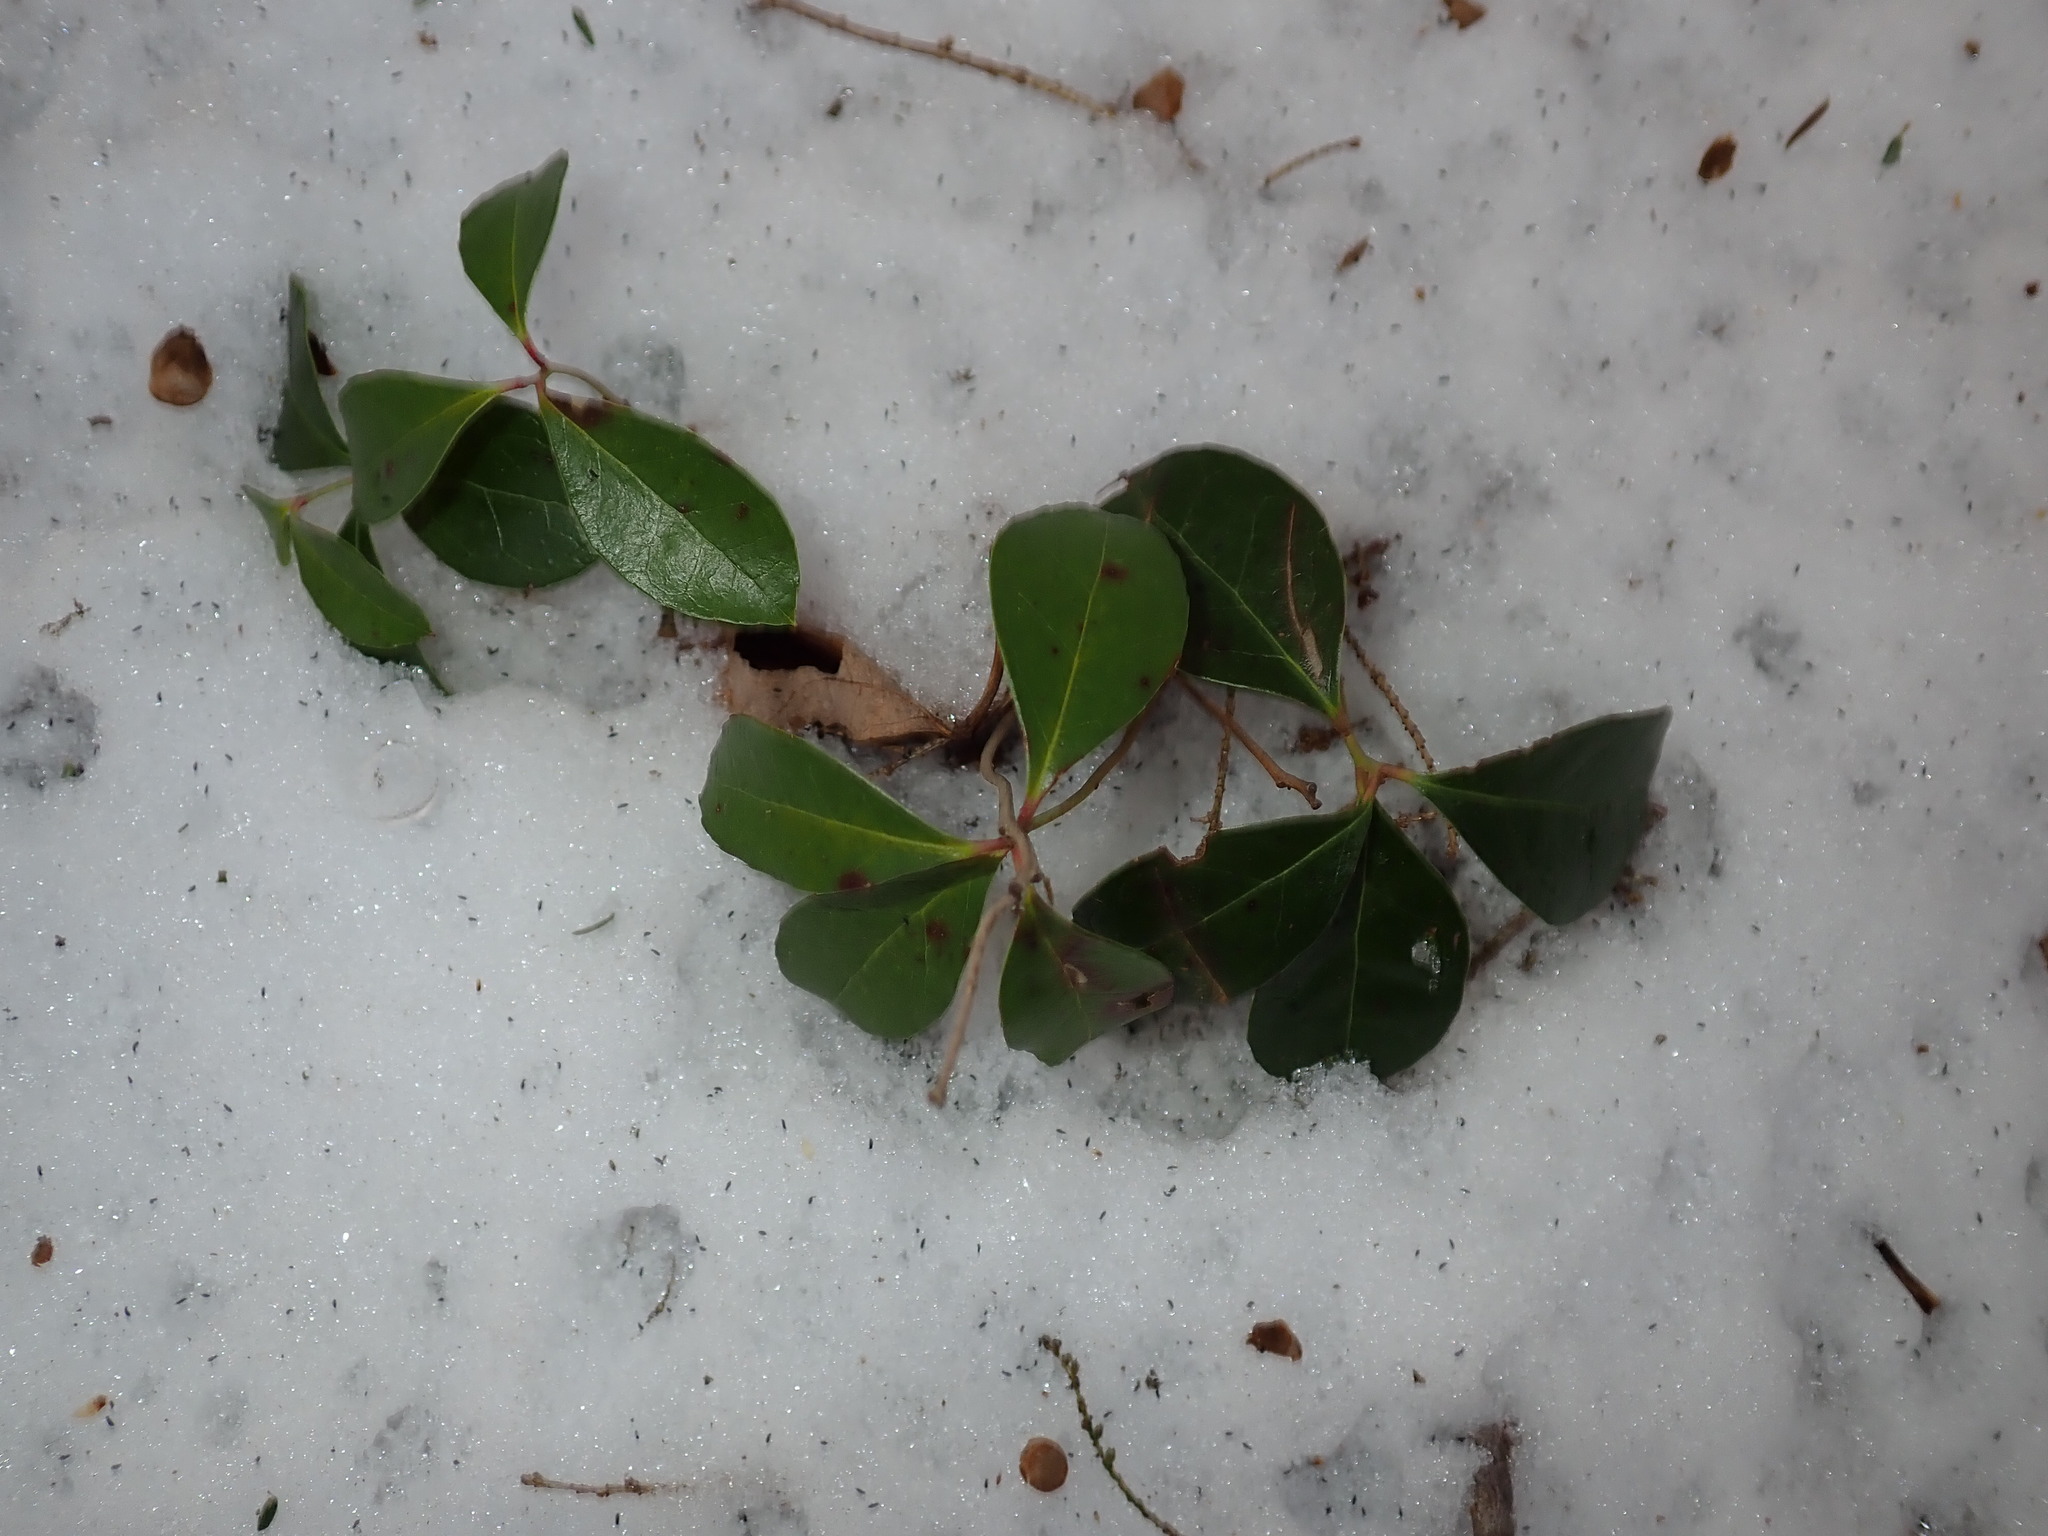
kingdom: Plantae
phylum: Tracheophyta
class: Magnoliopsida
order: Ericales
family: Ericaceae
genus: Gaultheria
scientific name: Gaultheria procumbens
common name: Checkerberry
